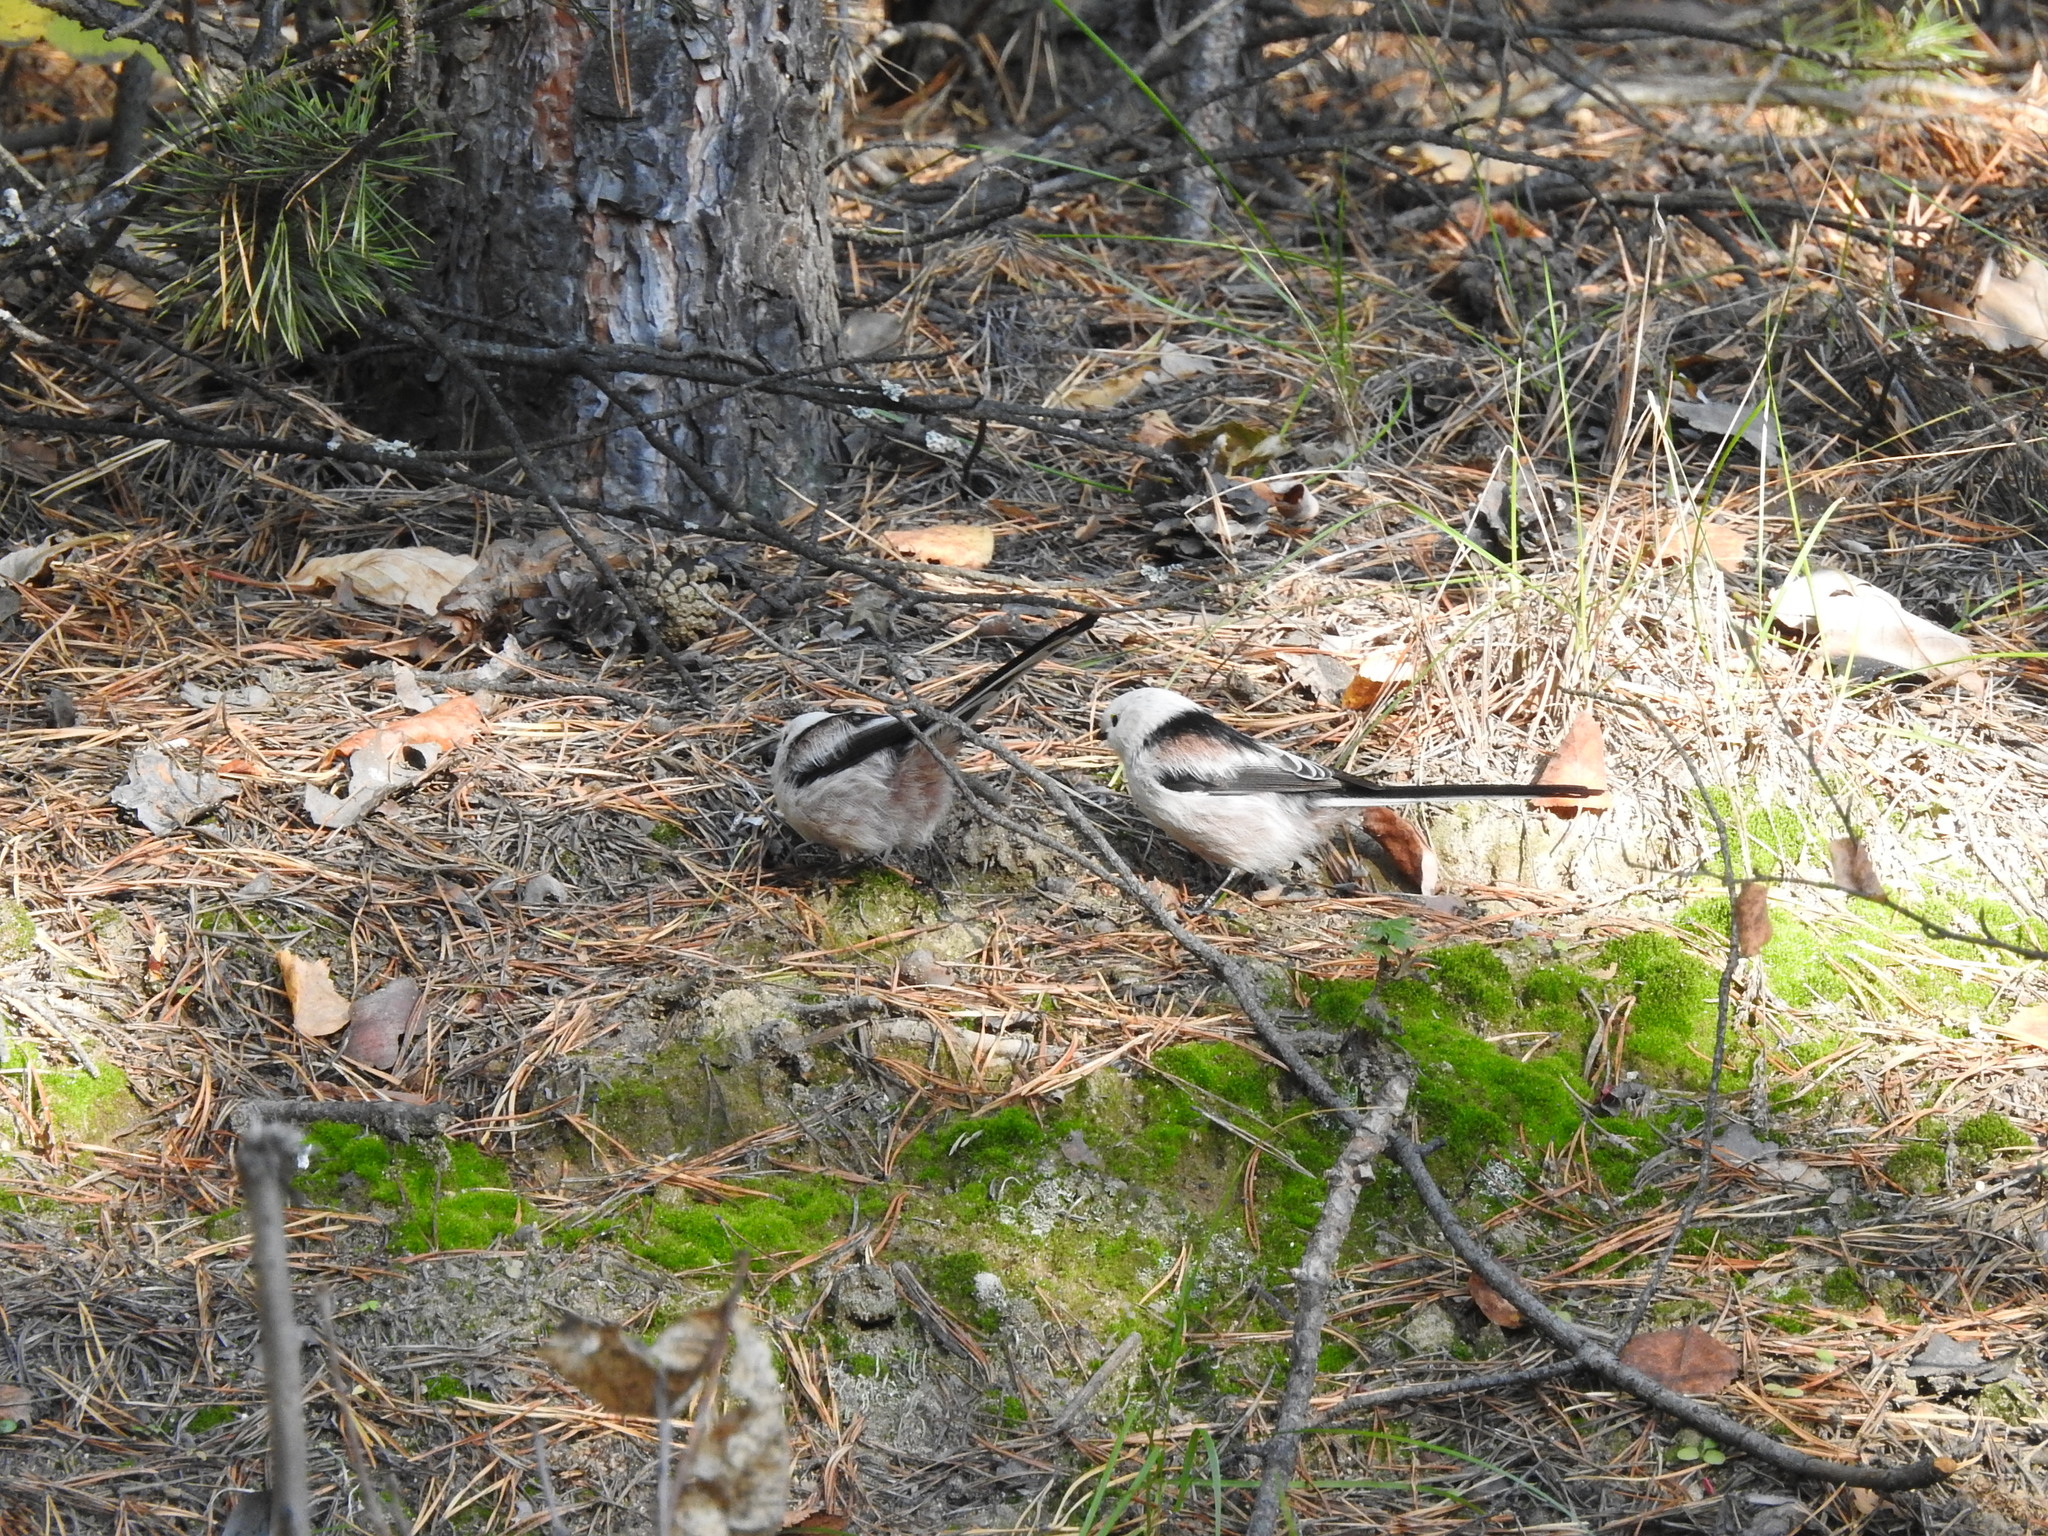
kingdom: Animalia
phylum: Chordata
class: Aves
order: Passeriformes
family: Aegithalidae
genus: Aegithalos
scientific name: Aegithalos caudatus
